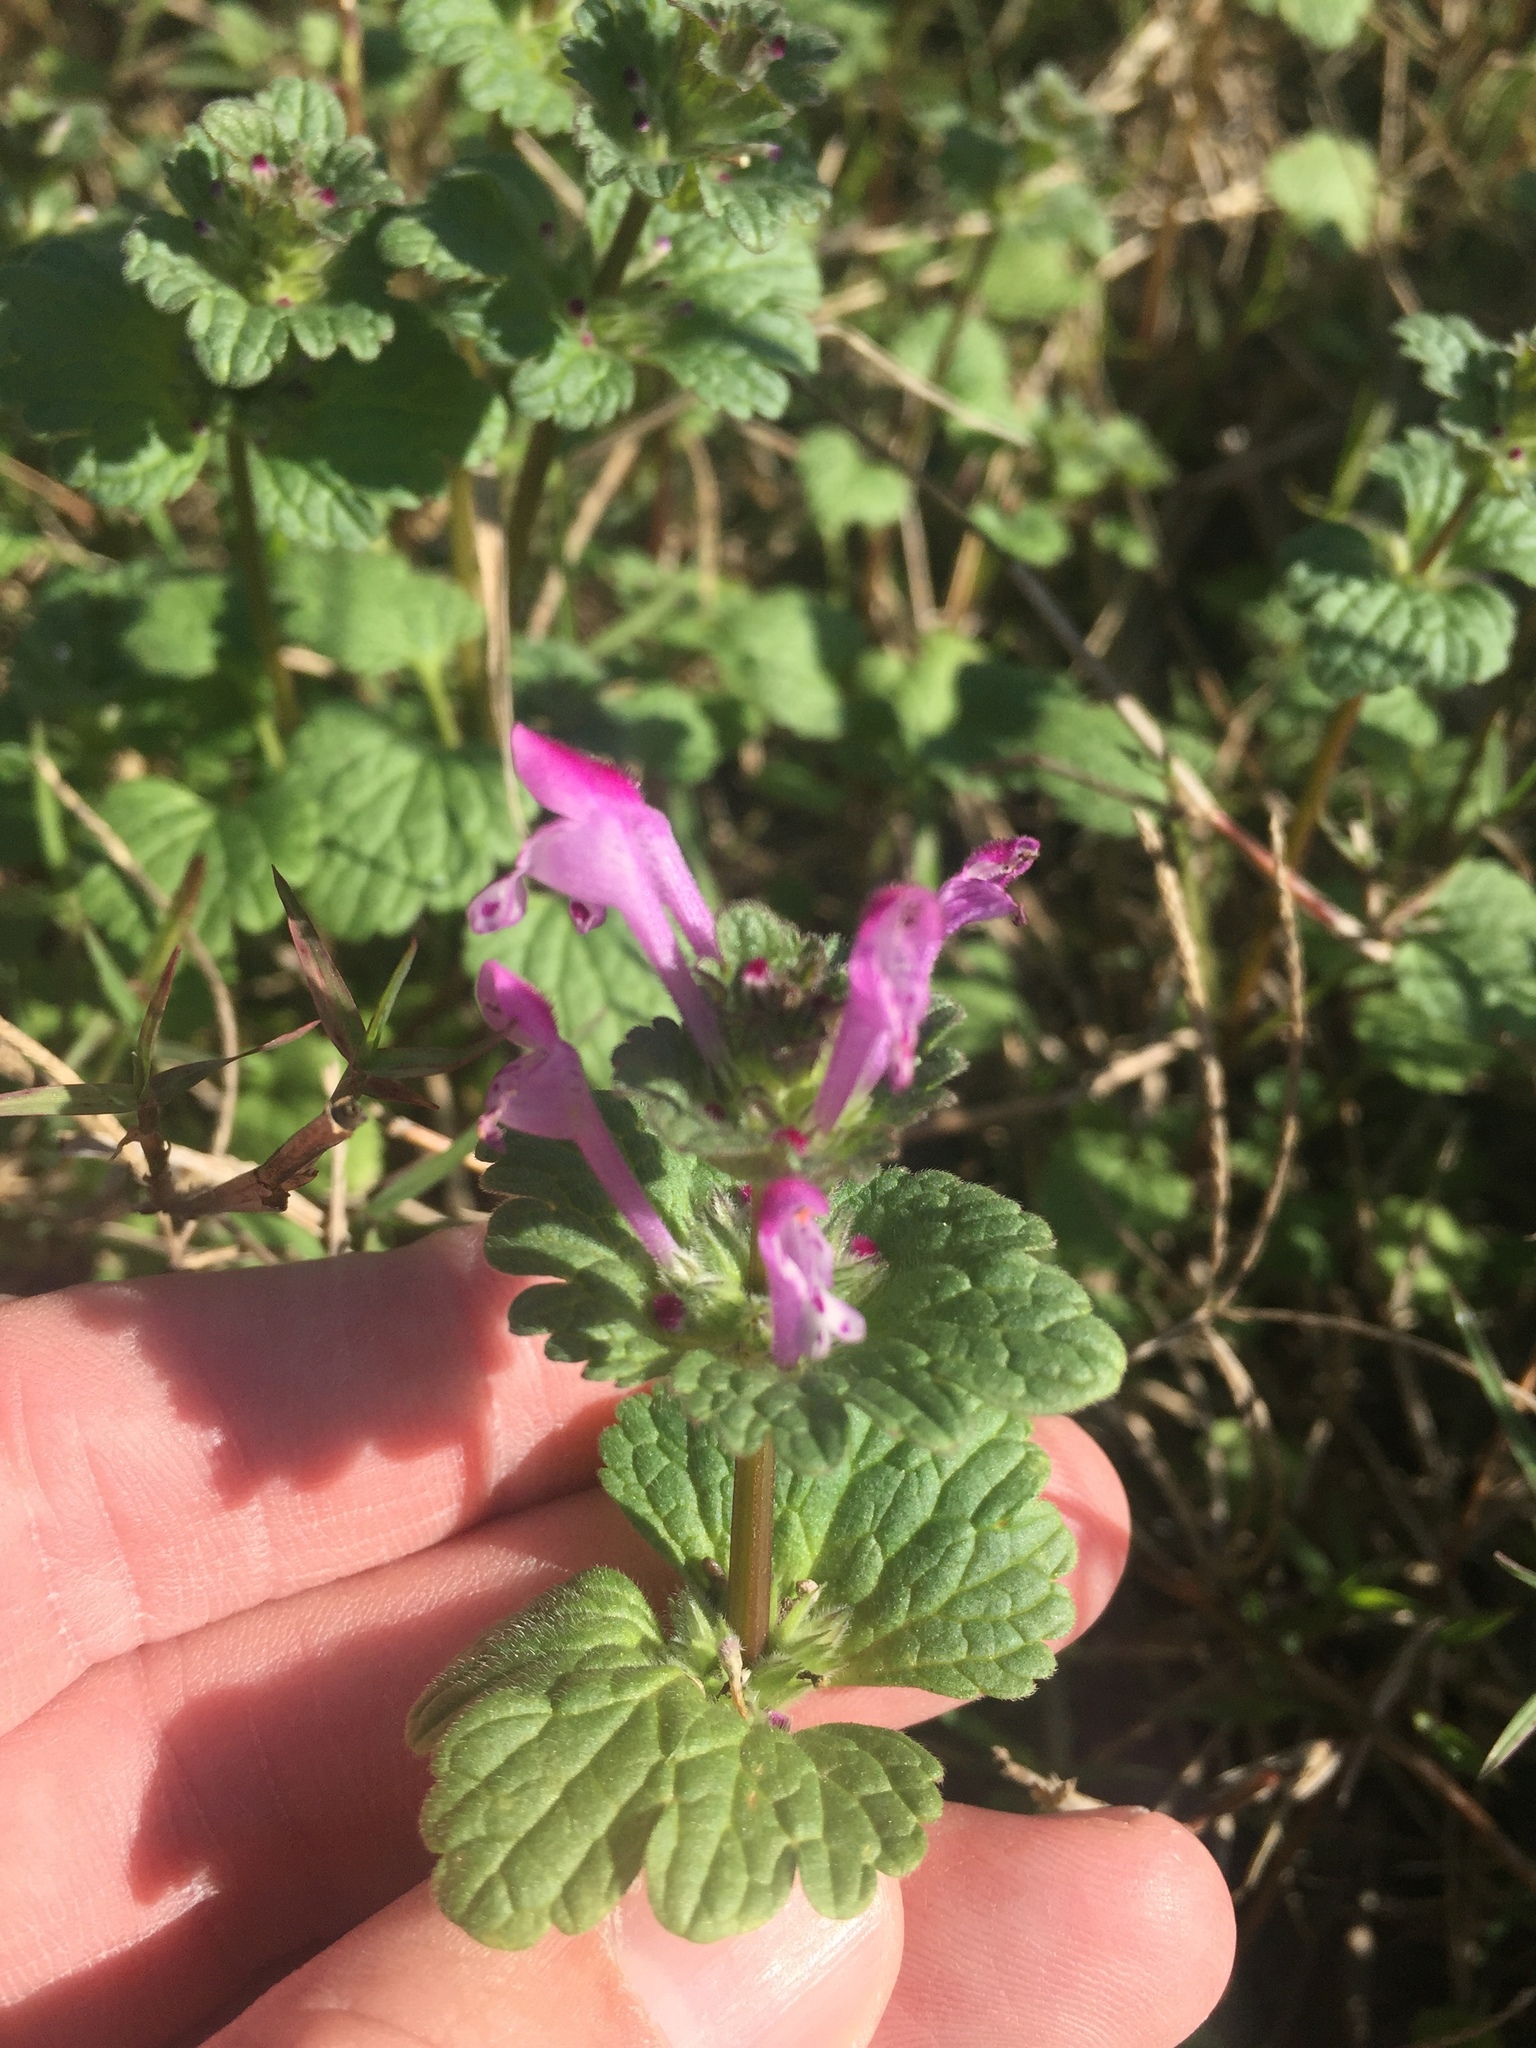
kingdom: Plantae
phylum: Tracheophyta
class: Magnoliopsida
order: Lamiales
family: Lamiaceae
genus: Lamium
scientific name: Lamium amplexicaule
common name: Henbit dead-nettle
